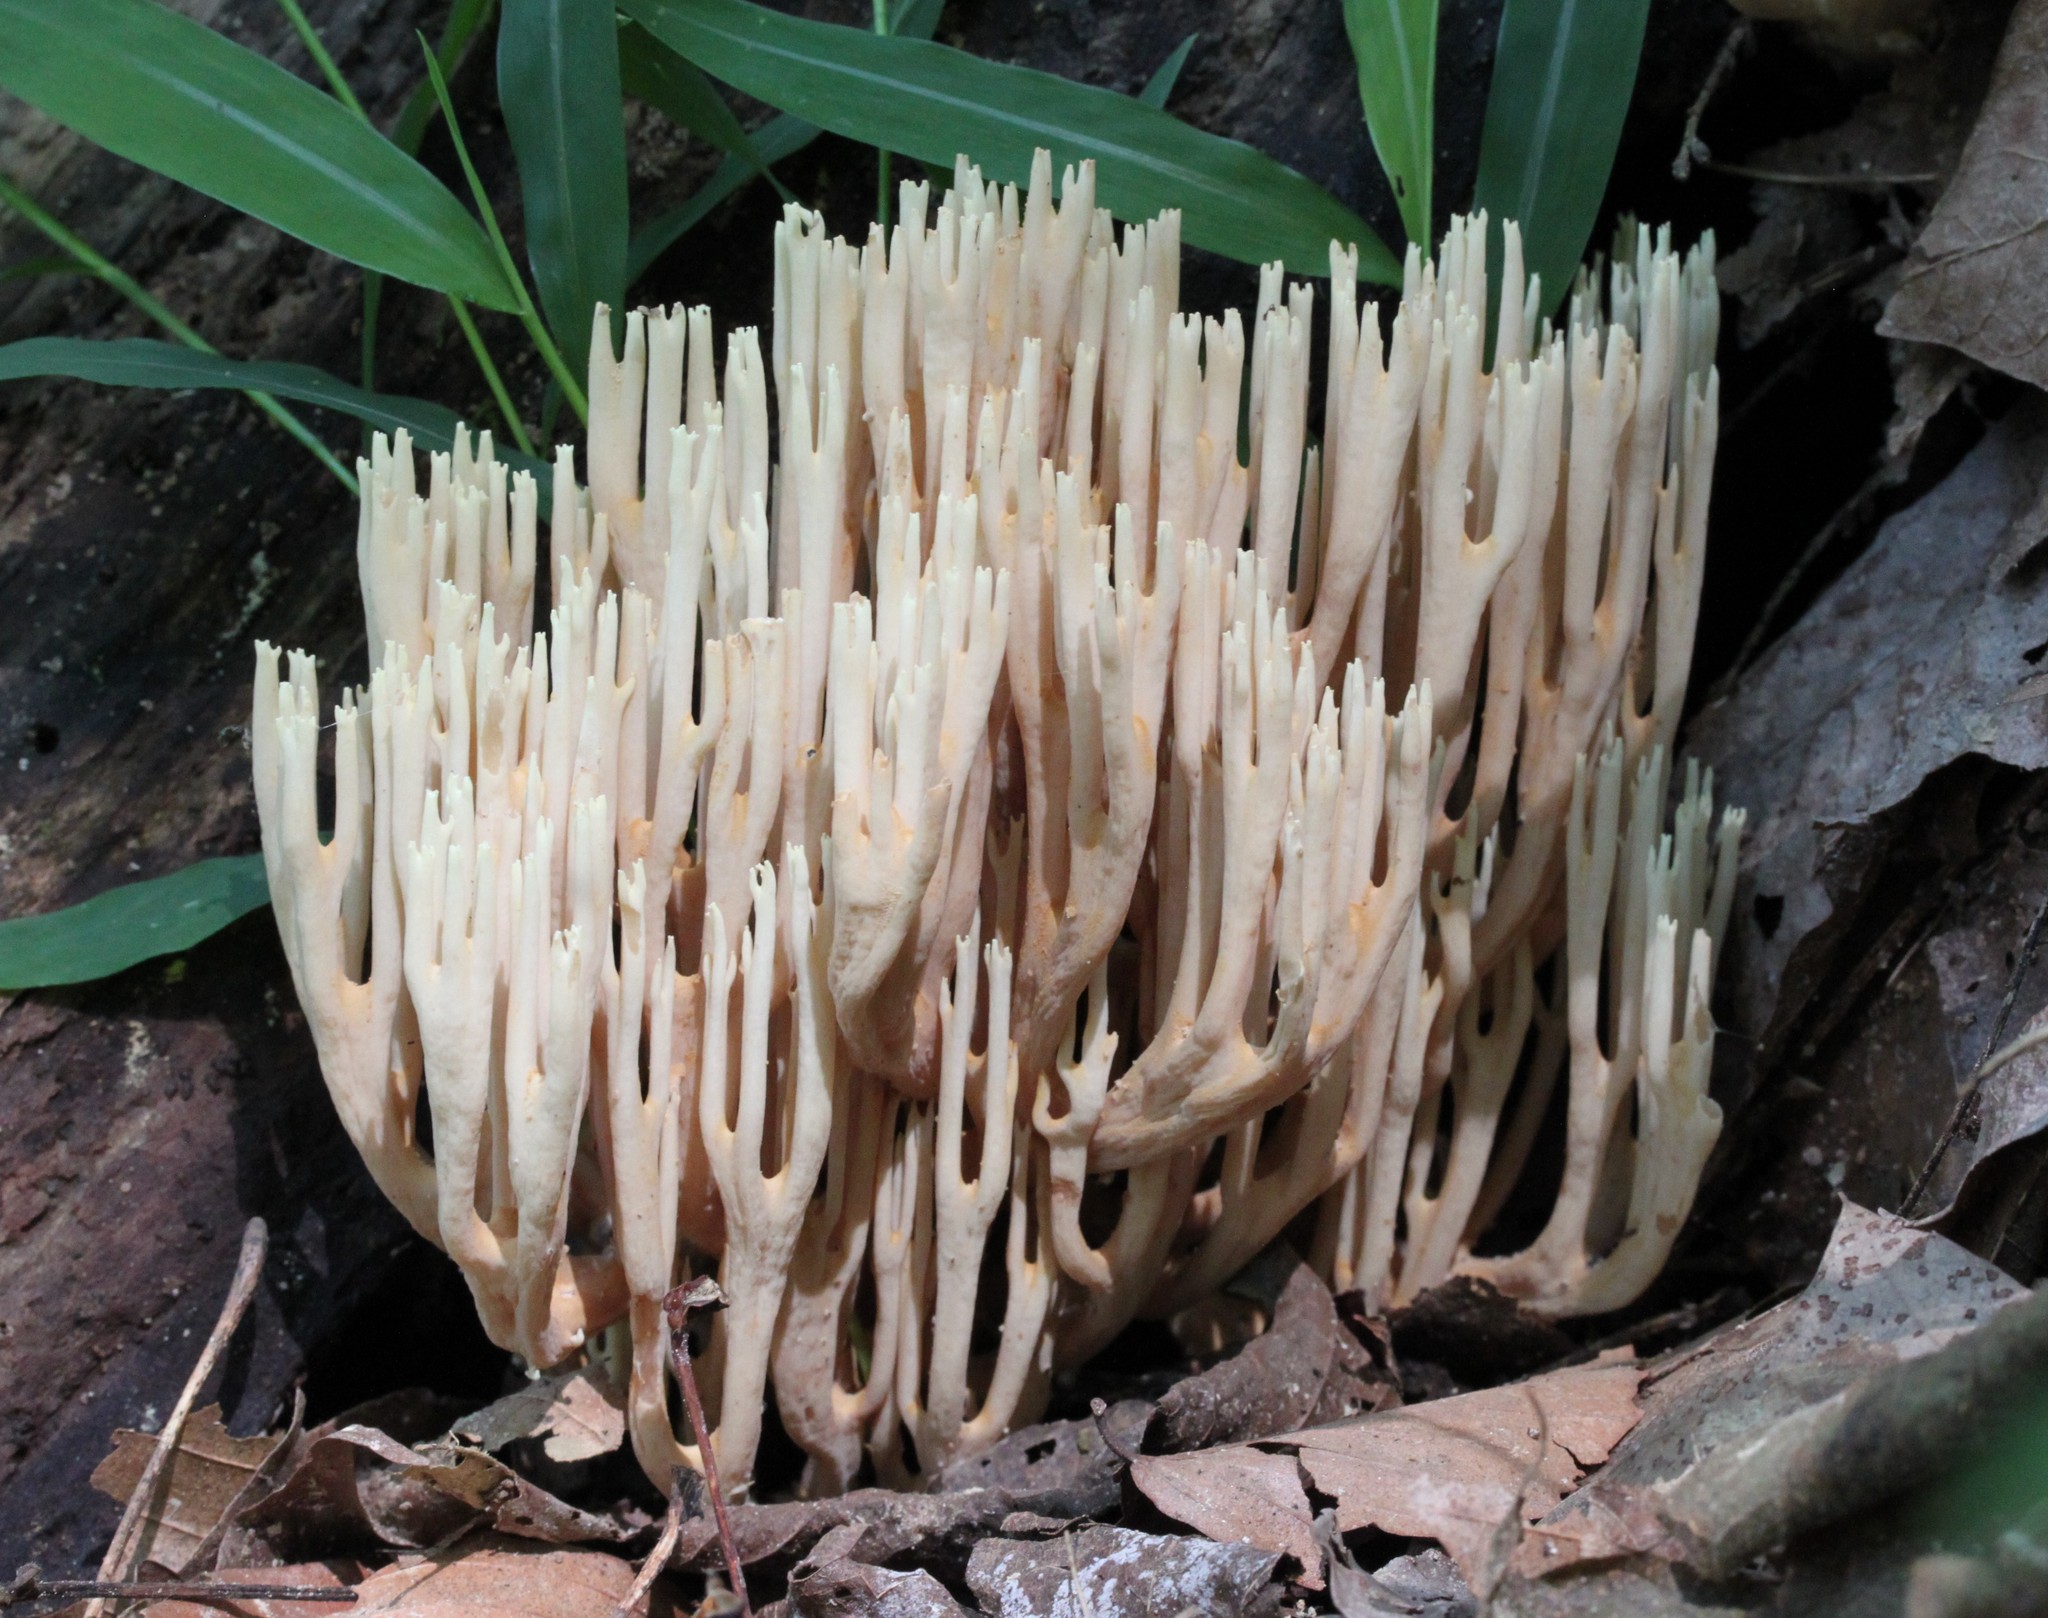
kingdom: Fungi
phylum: Basidiomycota
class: Agaricomycetes
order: Gomphales
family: Gomphaceae
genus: Ramaria
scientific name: Ramaria stricta
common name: Upright coral
